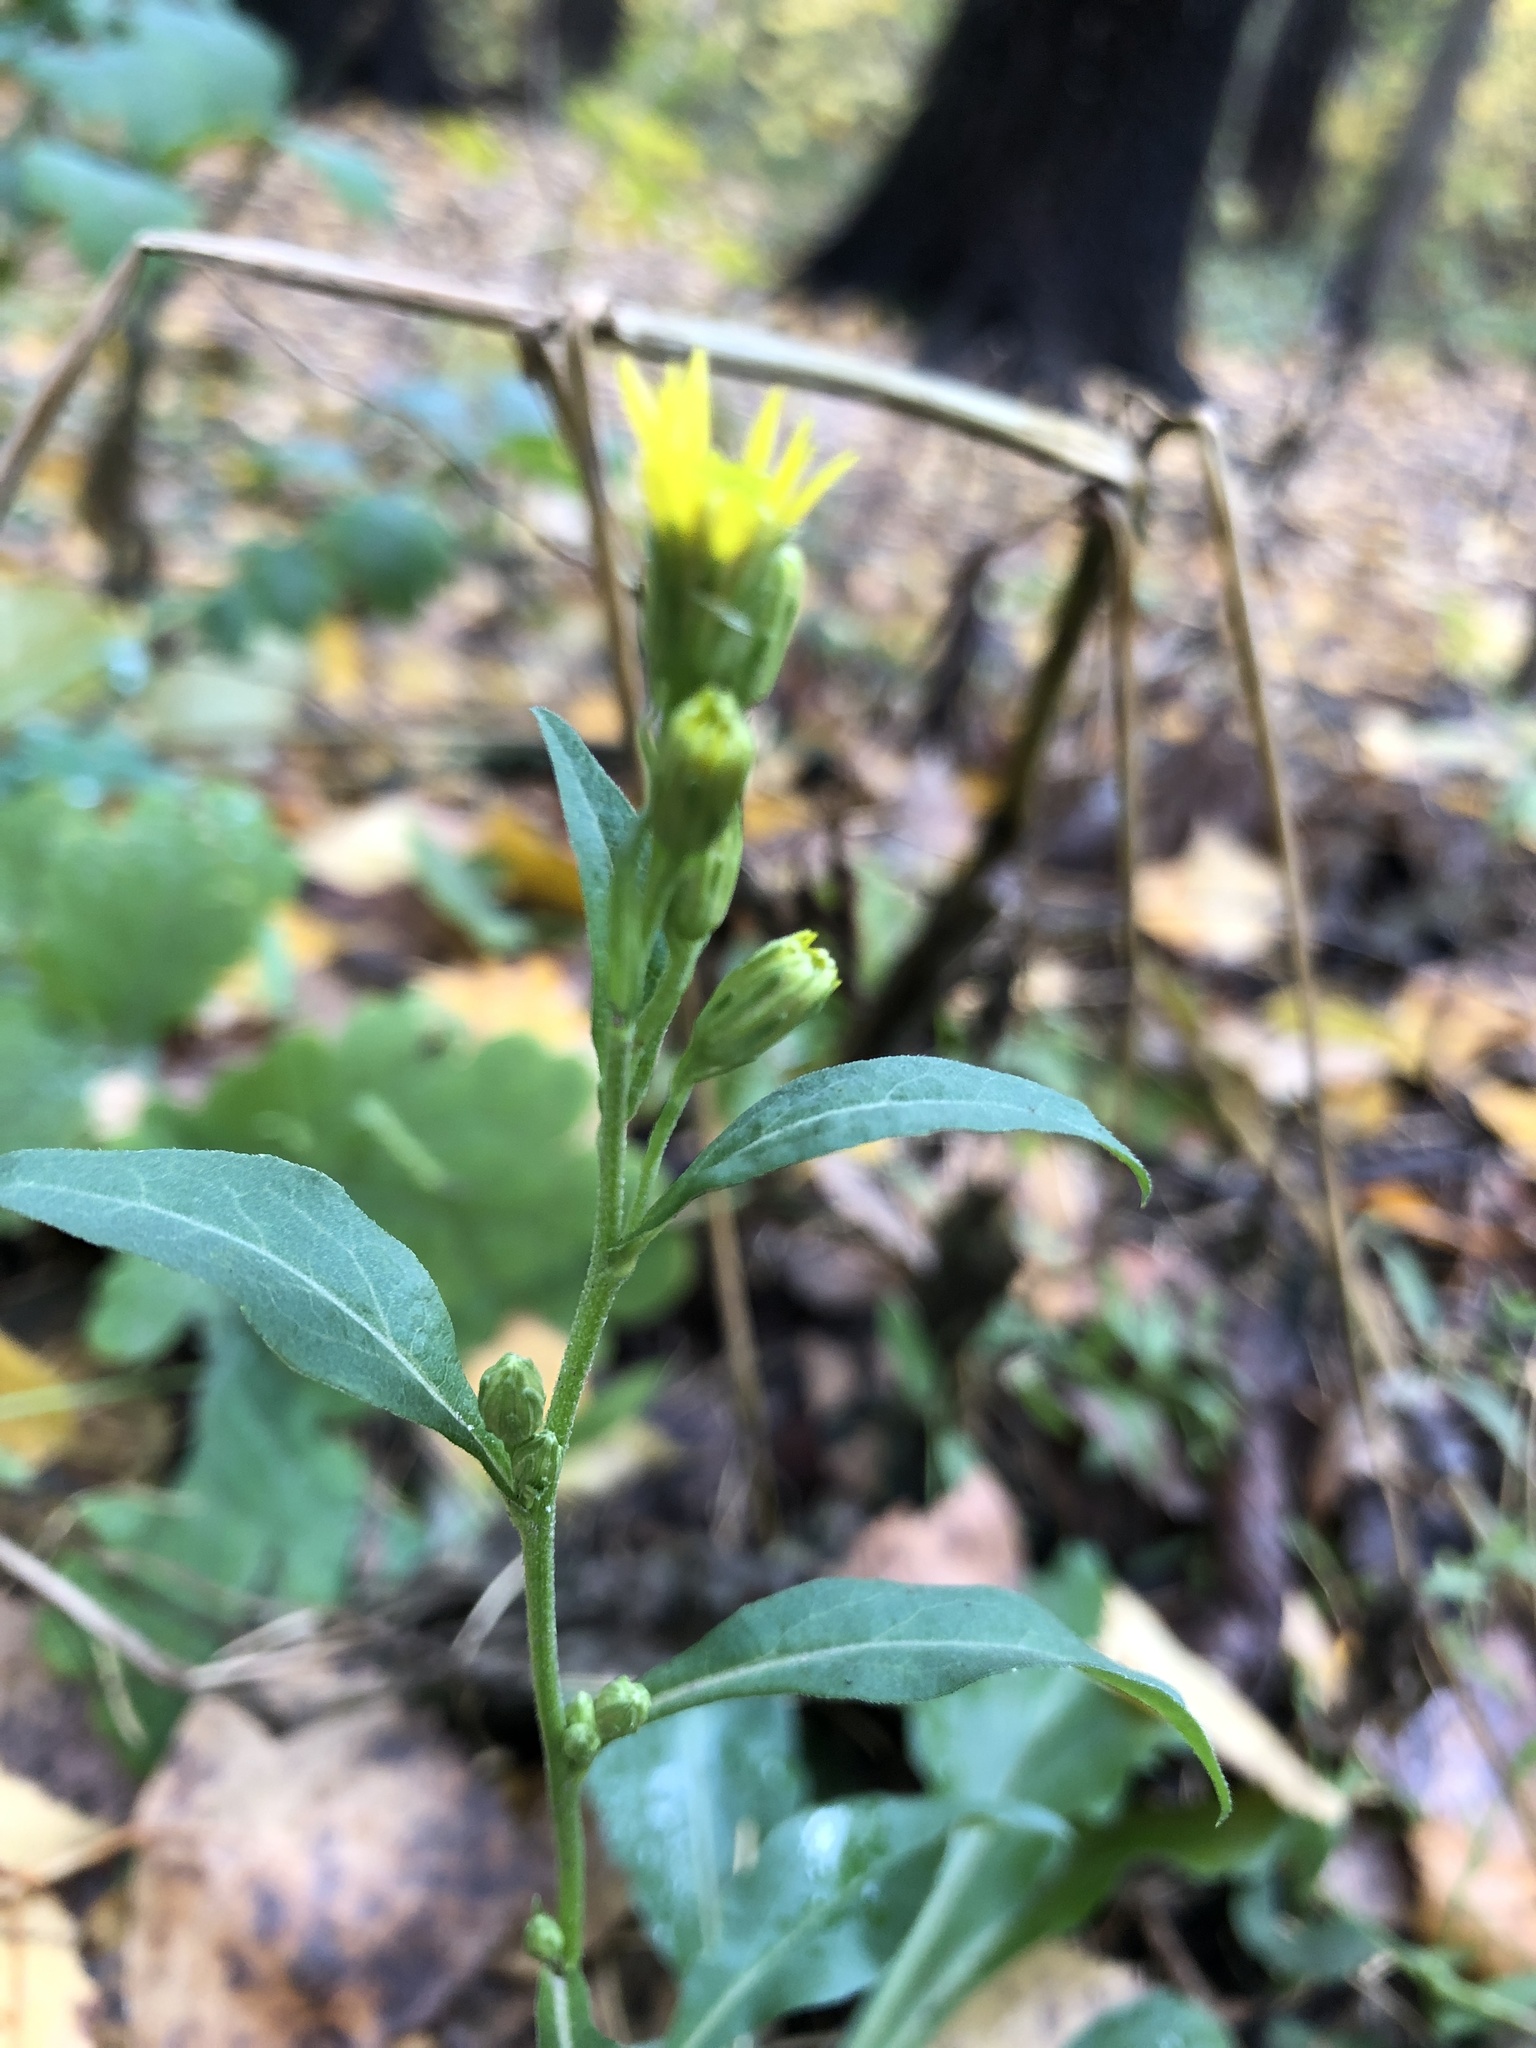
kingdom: Plantae
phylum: Tracheophyta
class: Magnoliopsida
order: Asterales
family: Asteraceae
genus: Solidago
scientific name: Solidago virgaurea
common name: Goldenrod
